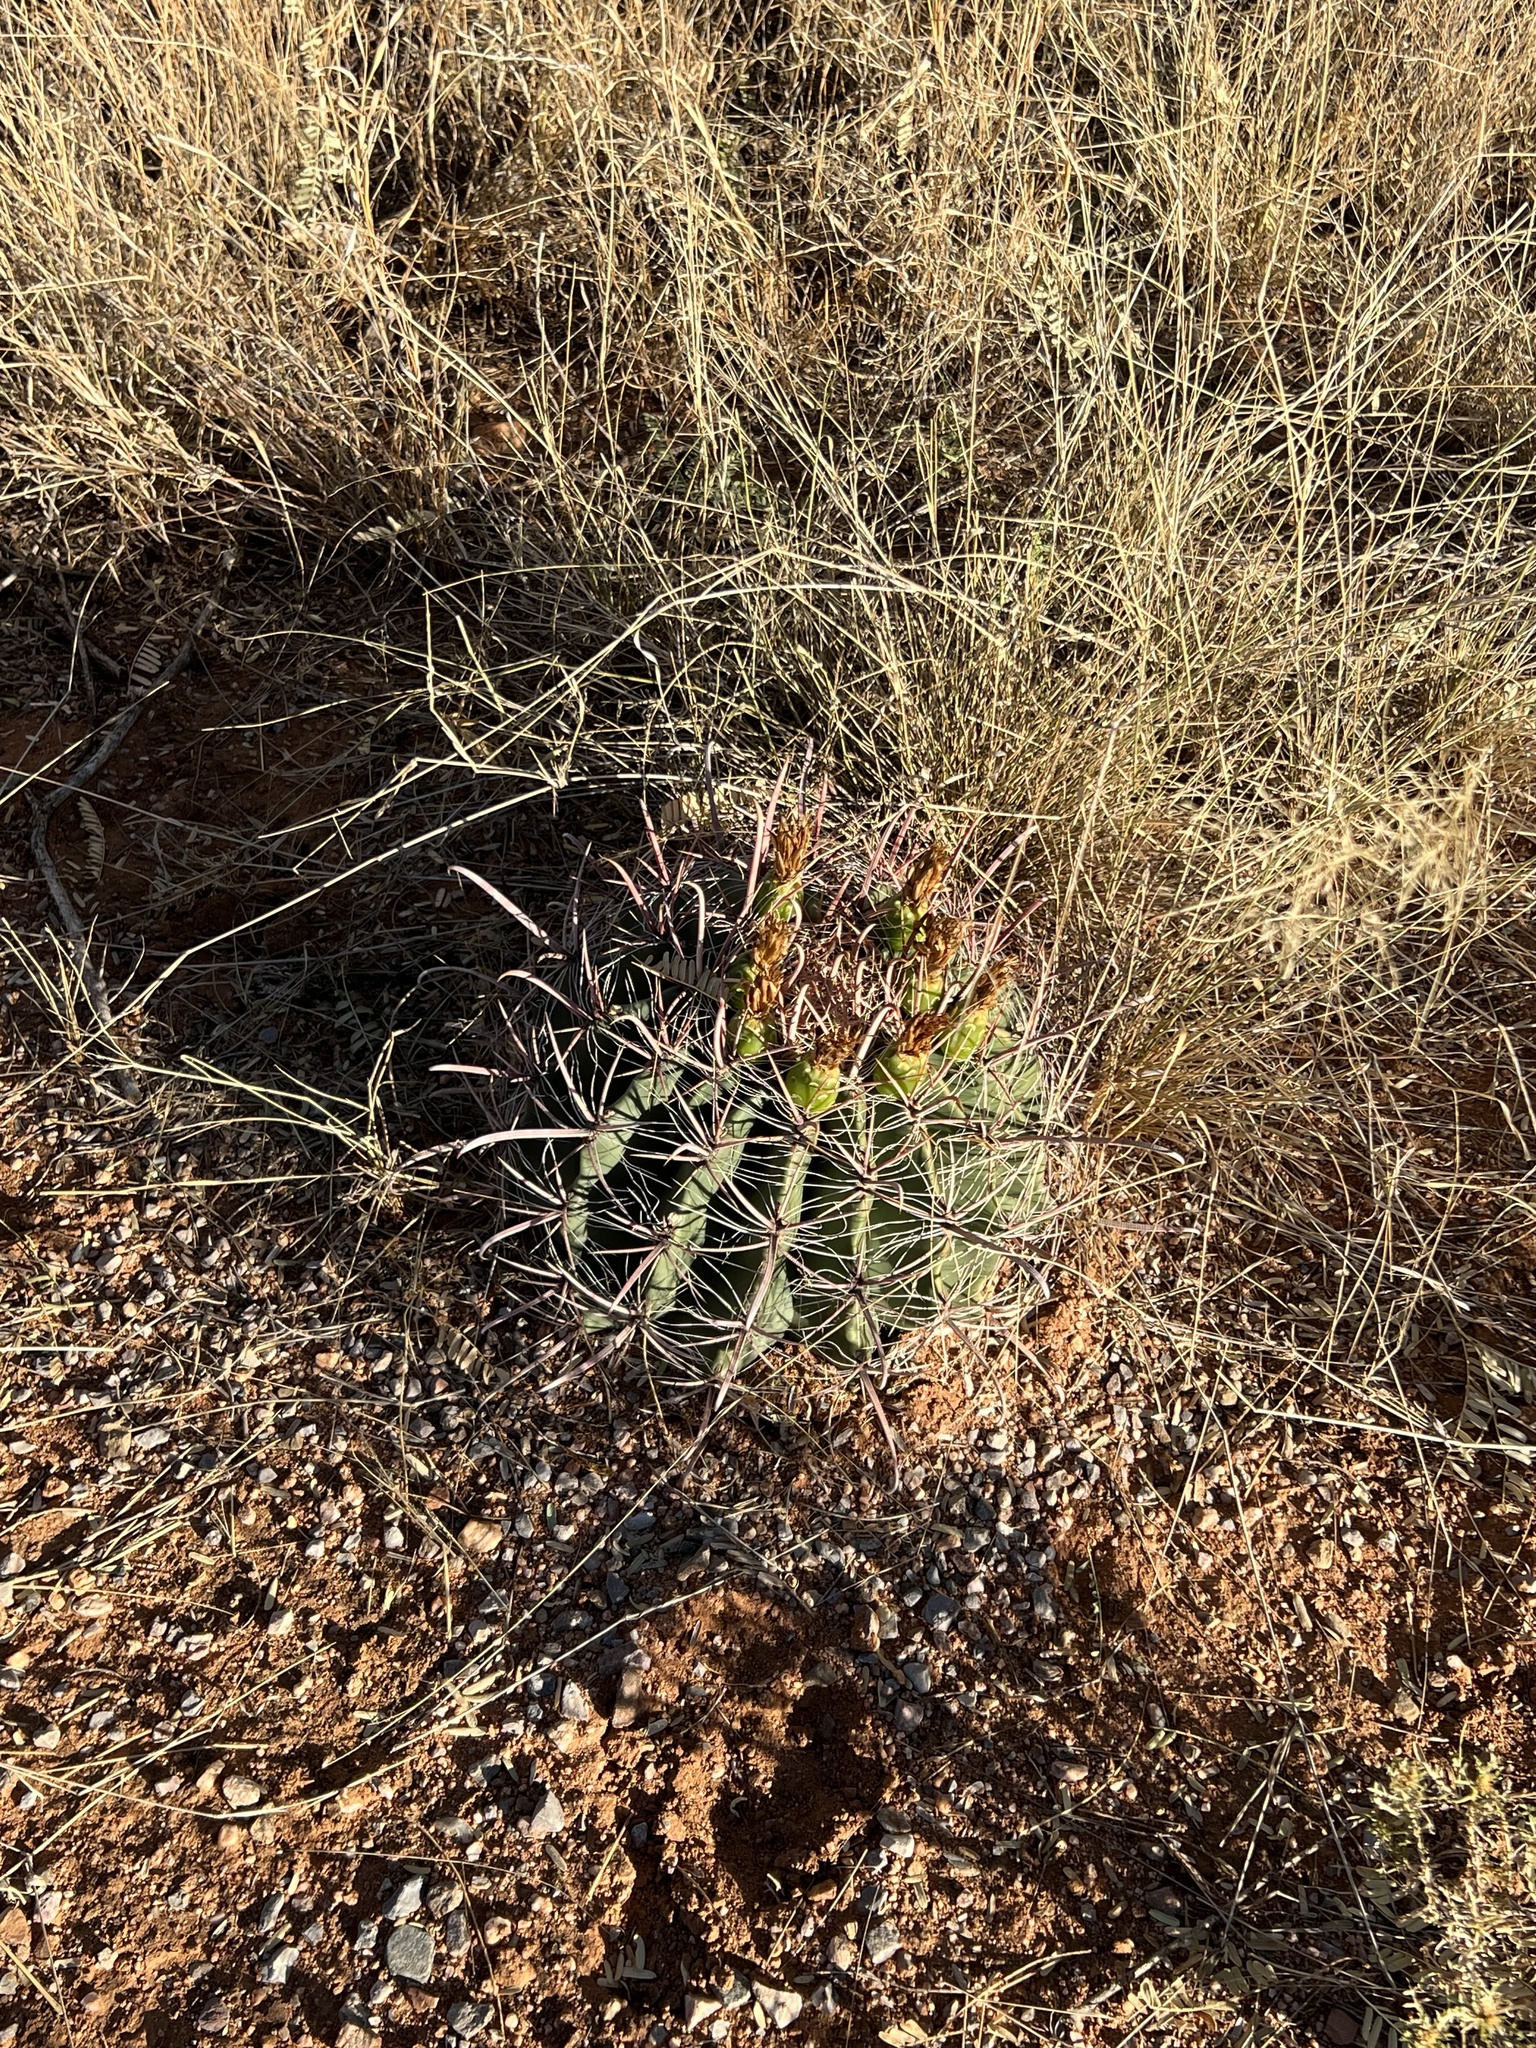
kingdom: Plantae
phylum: Tracheophyta
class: Magnoliopsida
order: Caryophyllales
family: Cactaceae
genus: Ferocactus
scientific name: Ferocactus wislizeni
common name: Candy barrel cactus
